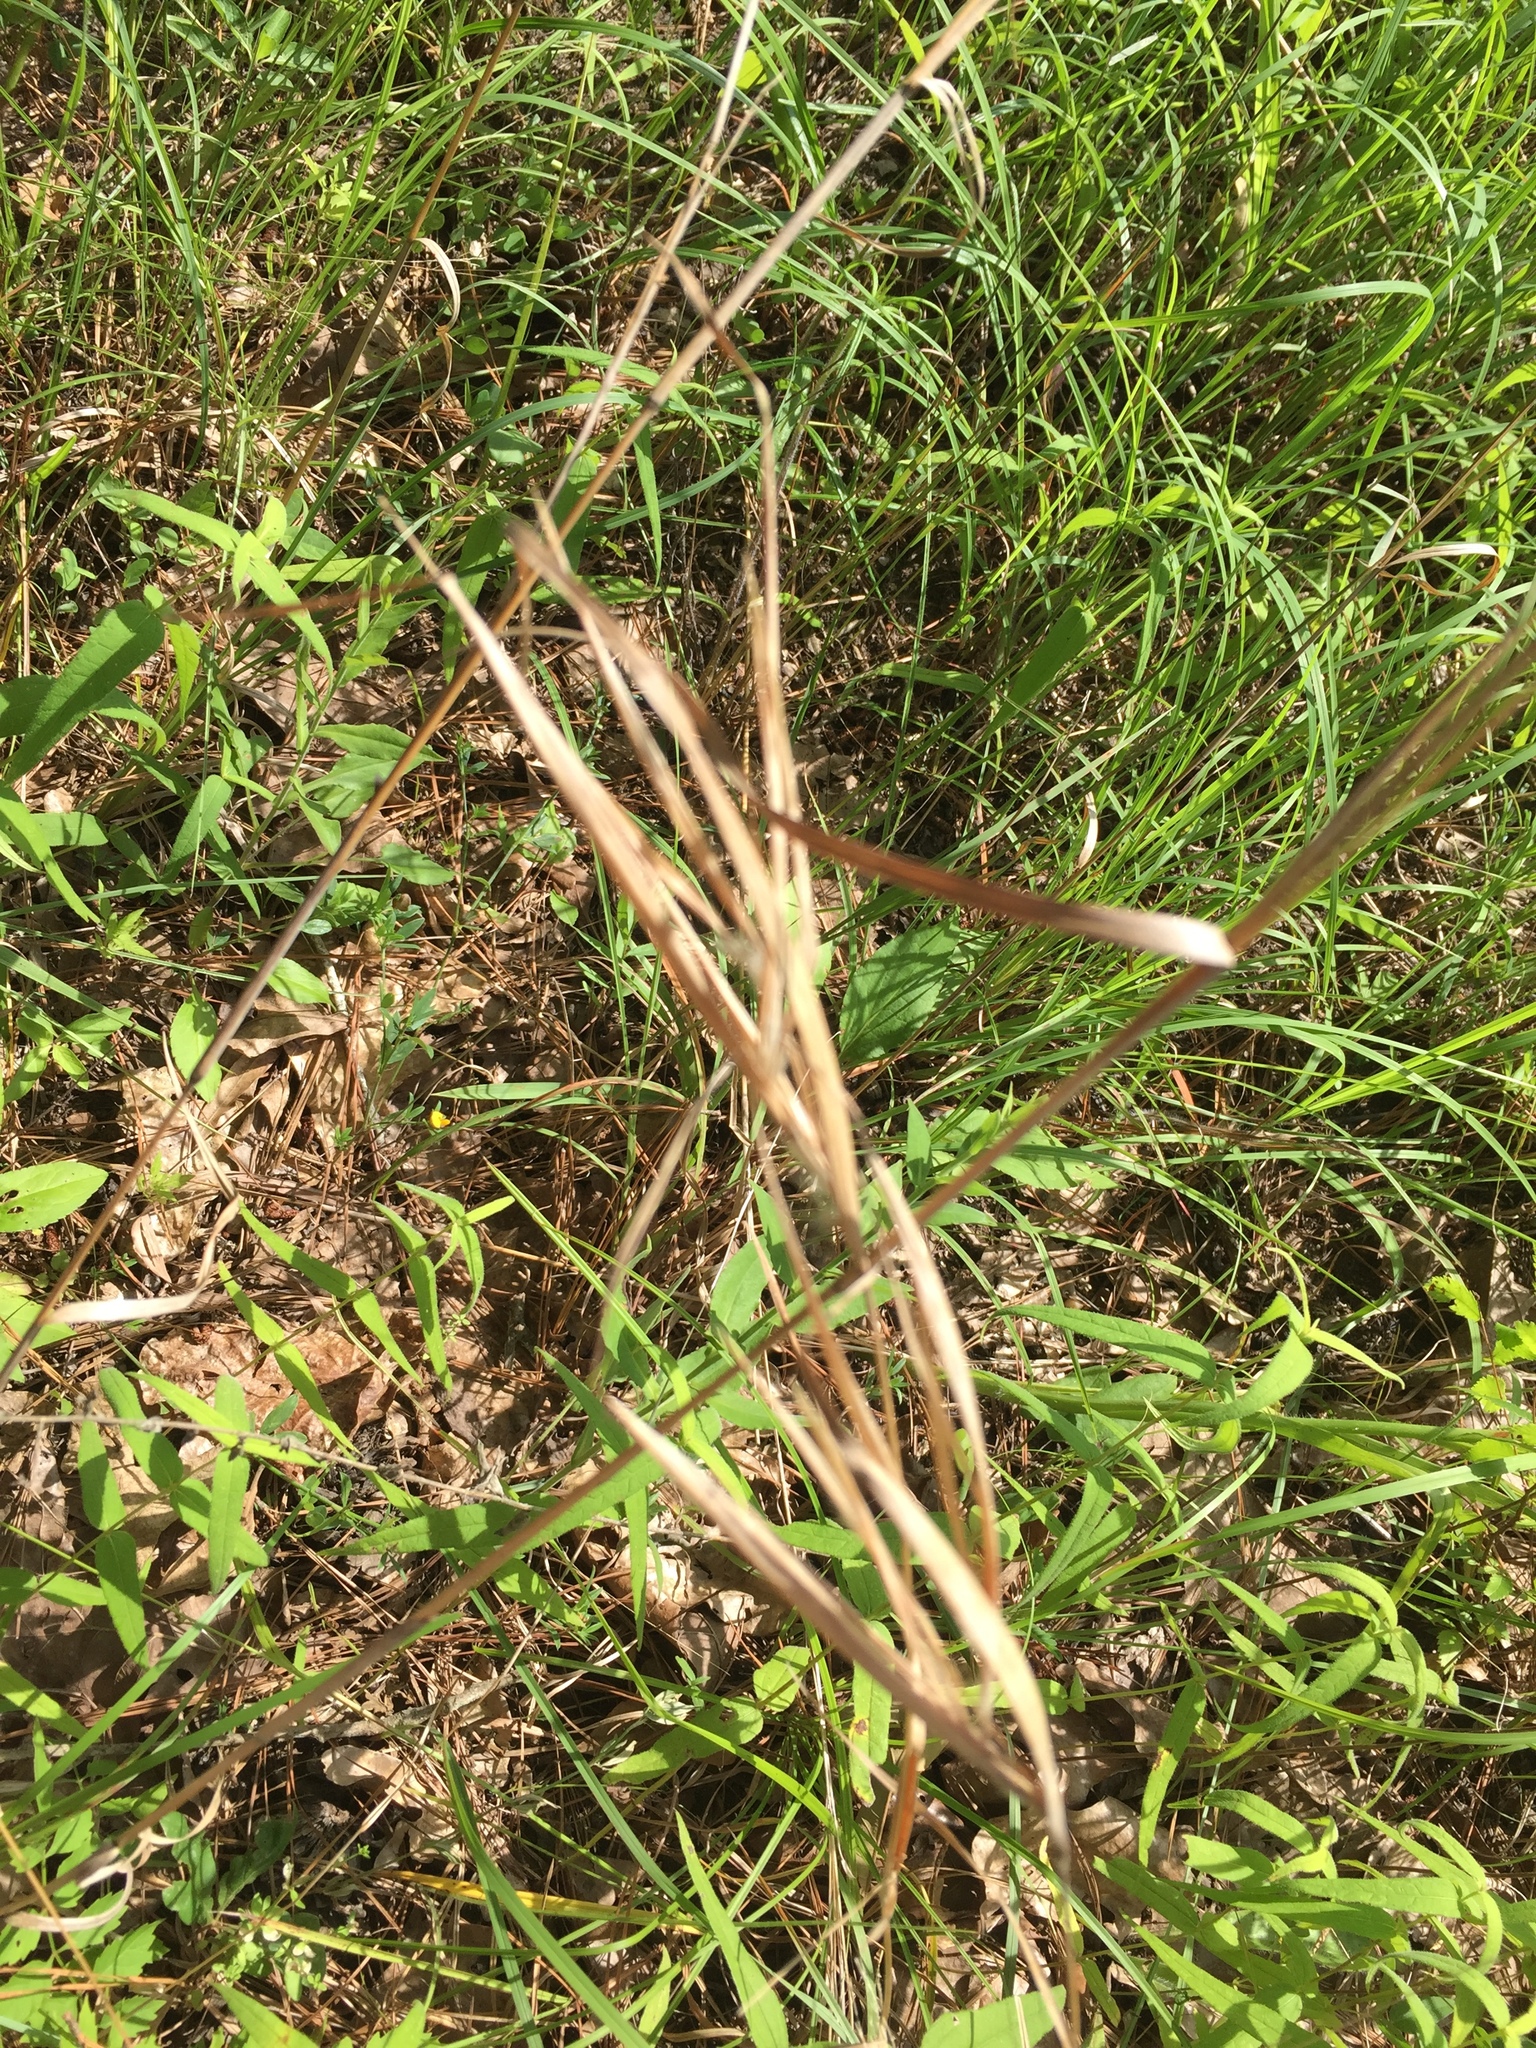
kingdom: Plantae
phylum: Tracheophyta
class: Liliopsida
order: Poales
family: Poaceae
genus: Andropogon
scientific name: Andropogon gyrans
